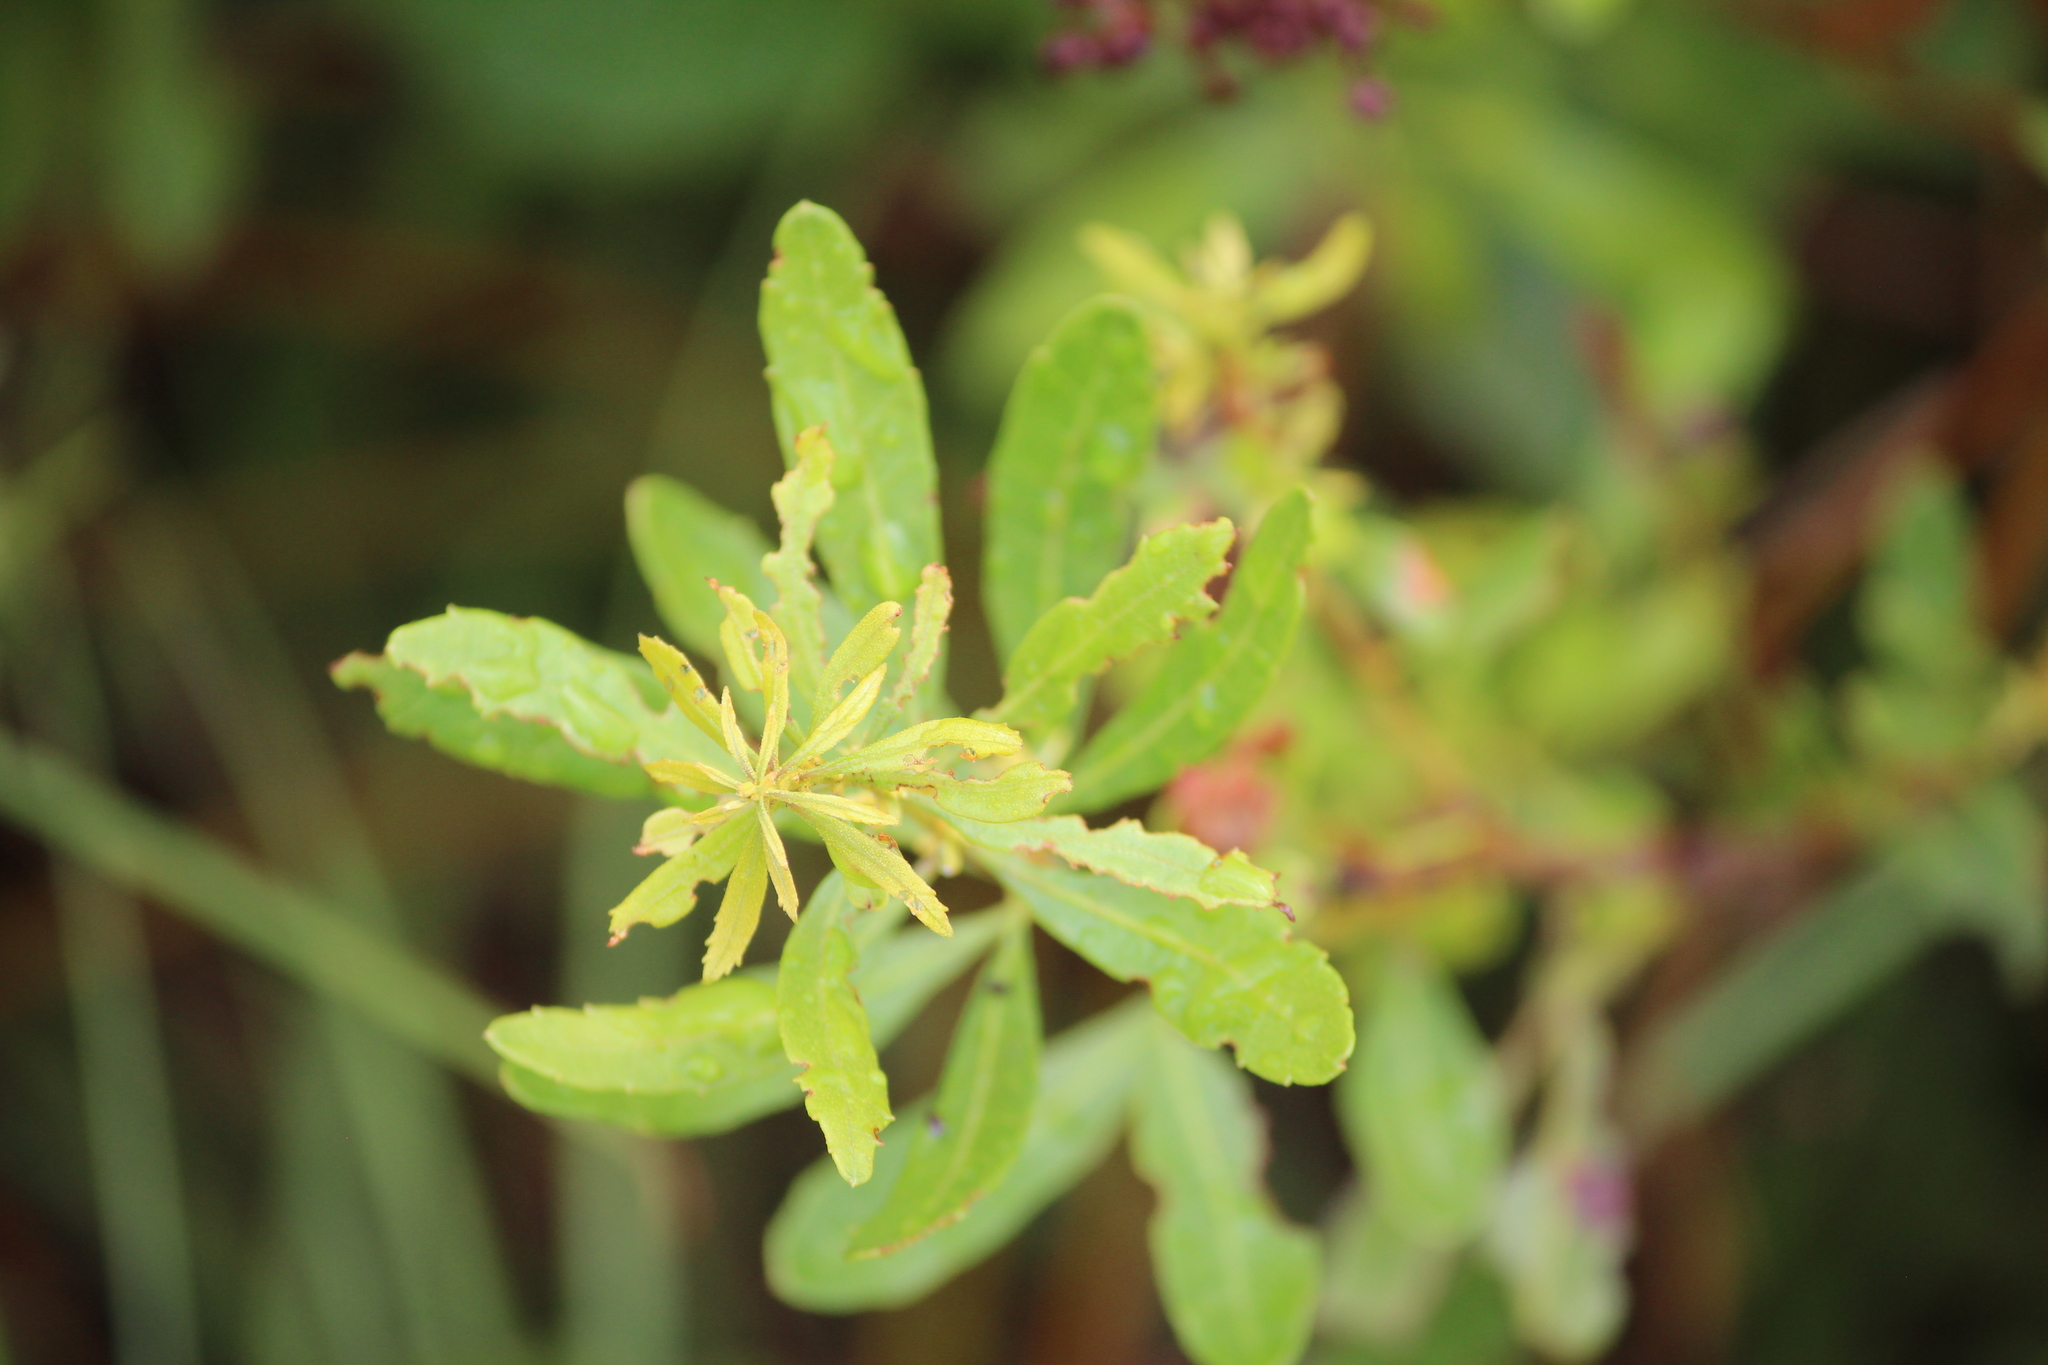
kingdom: Plantae
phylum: Tracheophyta
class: Magnoliopsida
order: Fagales
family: Myricaceae
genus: Morella
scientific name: Morella cerifera
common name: Wax myrtle
